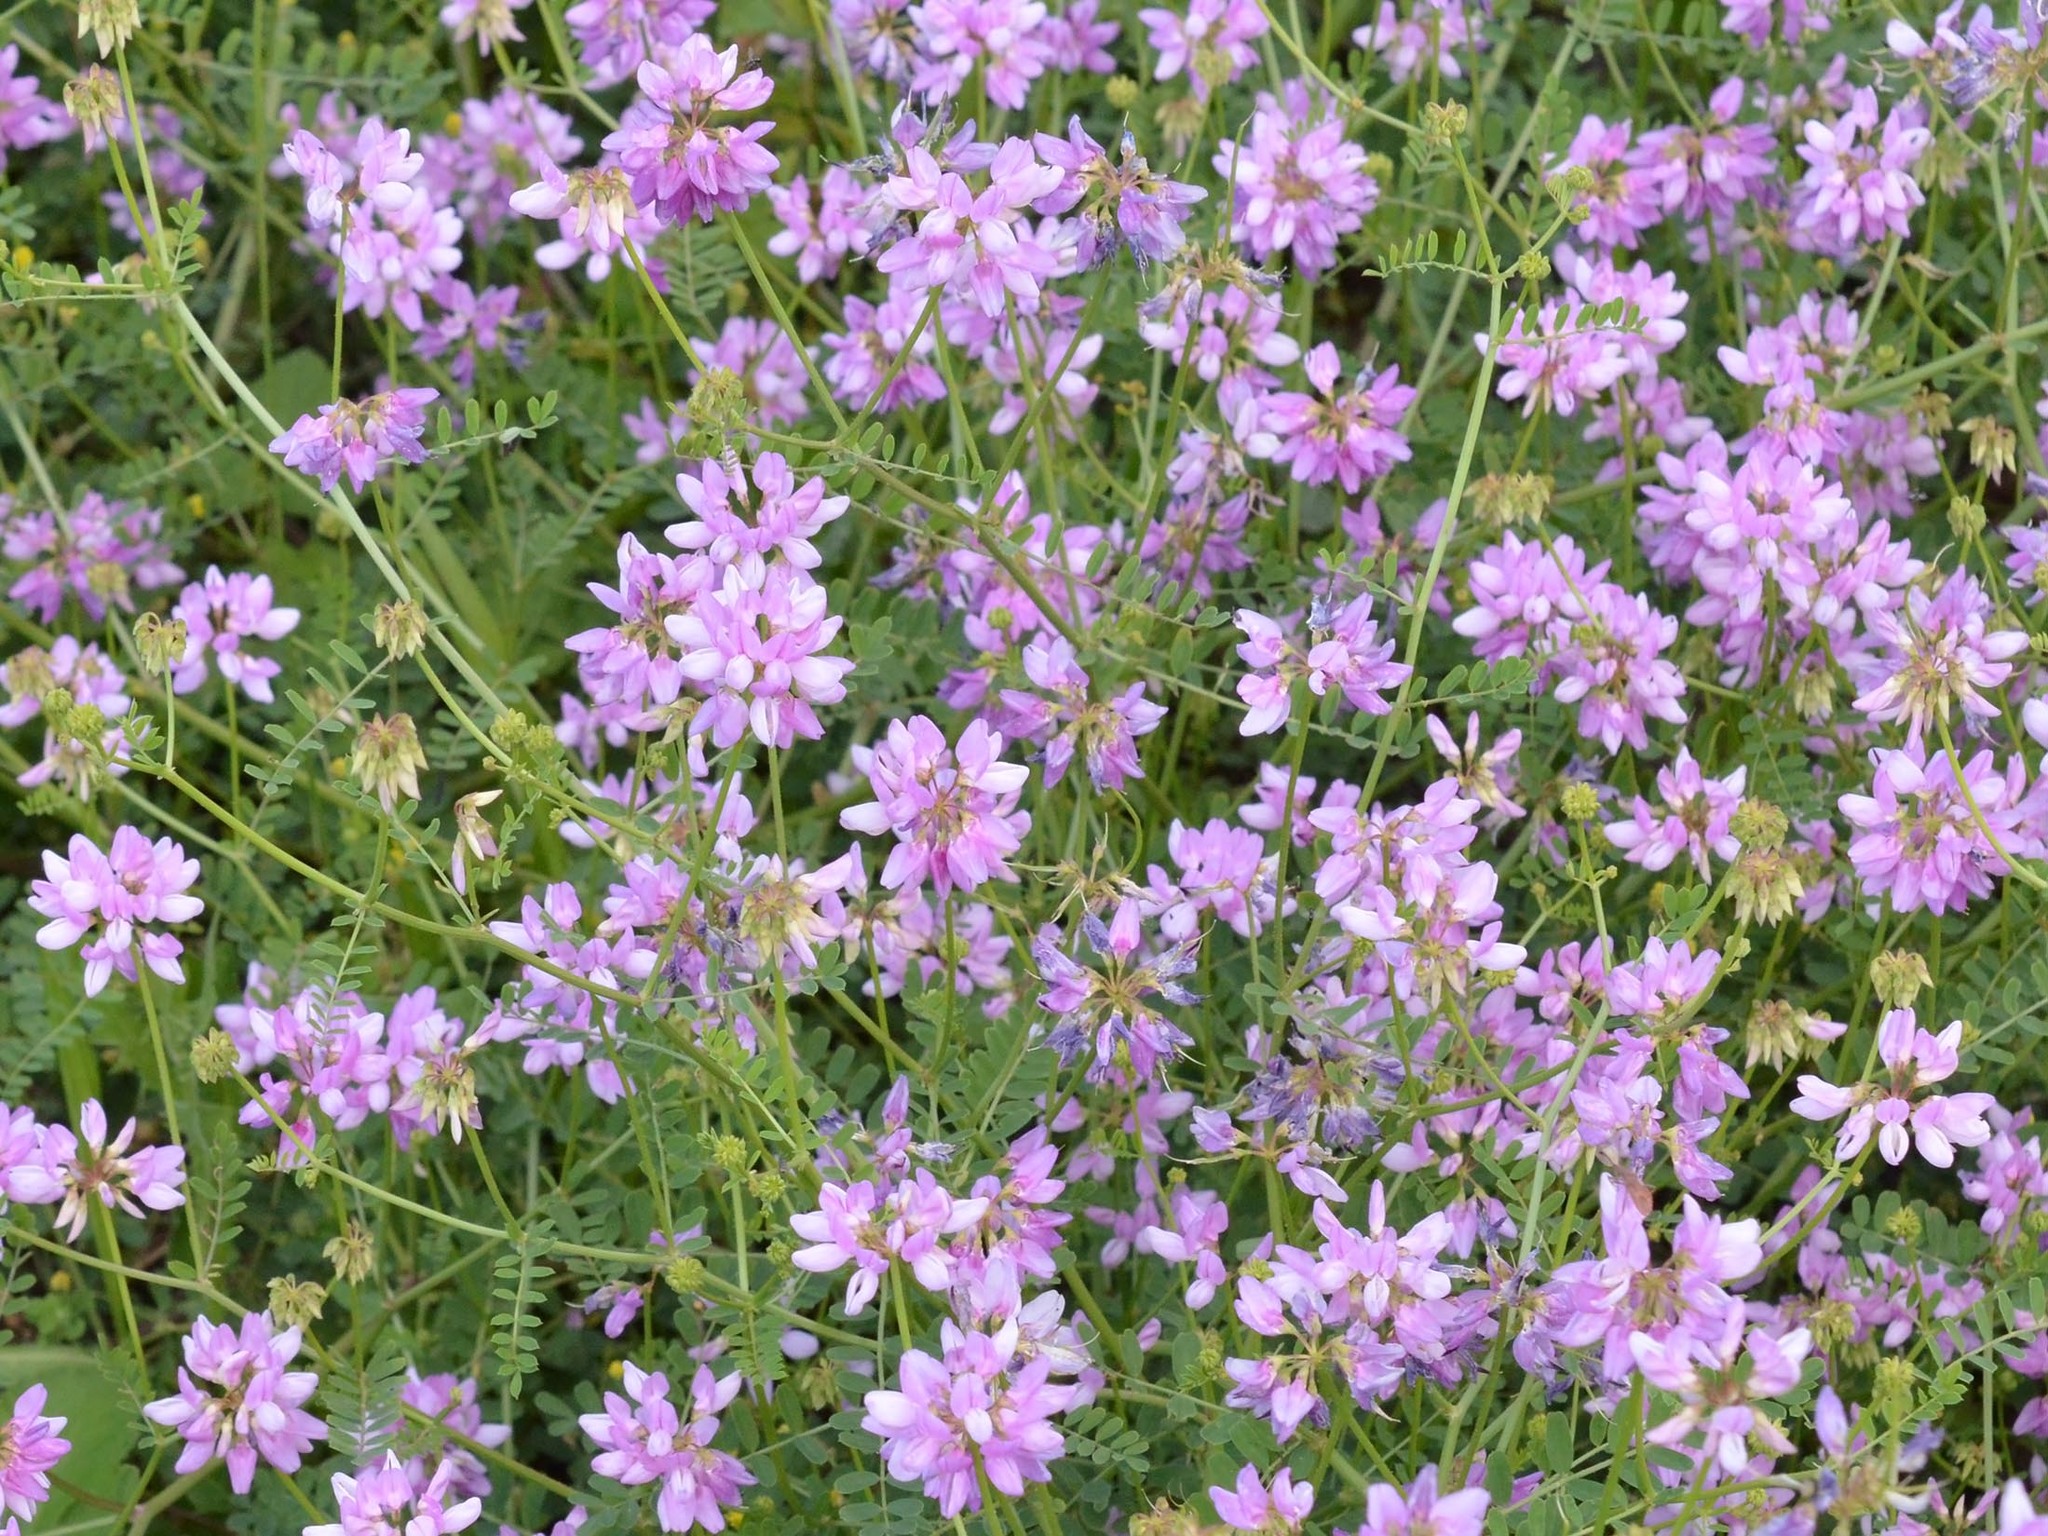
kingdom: Plantae
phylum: Tracheophyta
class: Magnoliopsida
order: Fabales
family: Fabaceae
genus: Coronilla
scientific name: Coronilla varia
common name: Crownvetch
